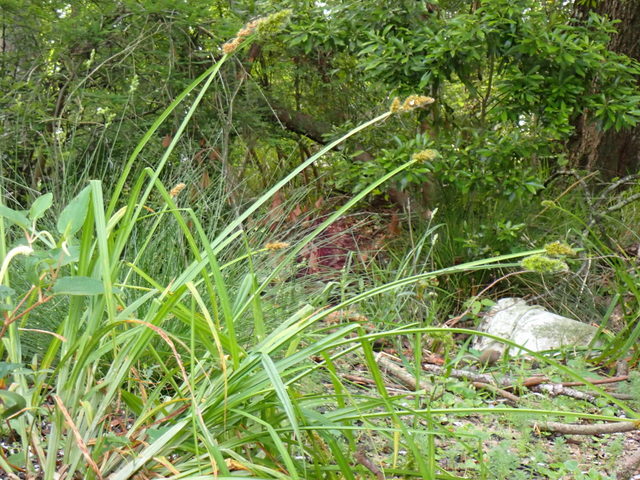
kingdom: Plantae
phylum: Tracheophyta
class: Liliopsida
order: Poales
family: Cyperaceae
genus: Carex
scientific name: Carex stipata
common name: Awl-fruited sedge
